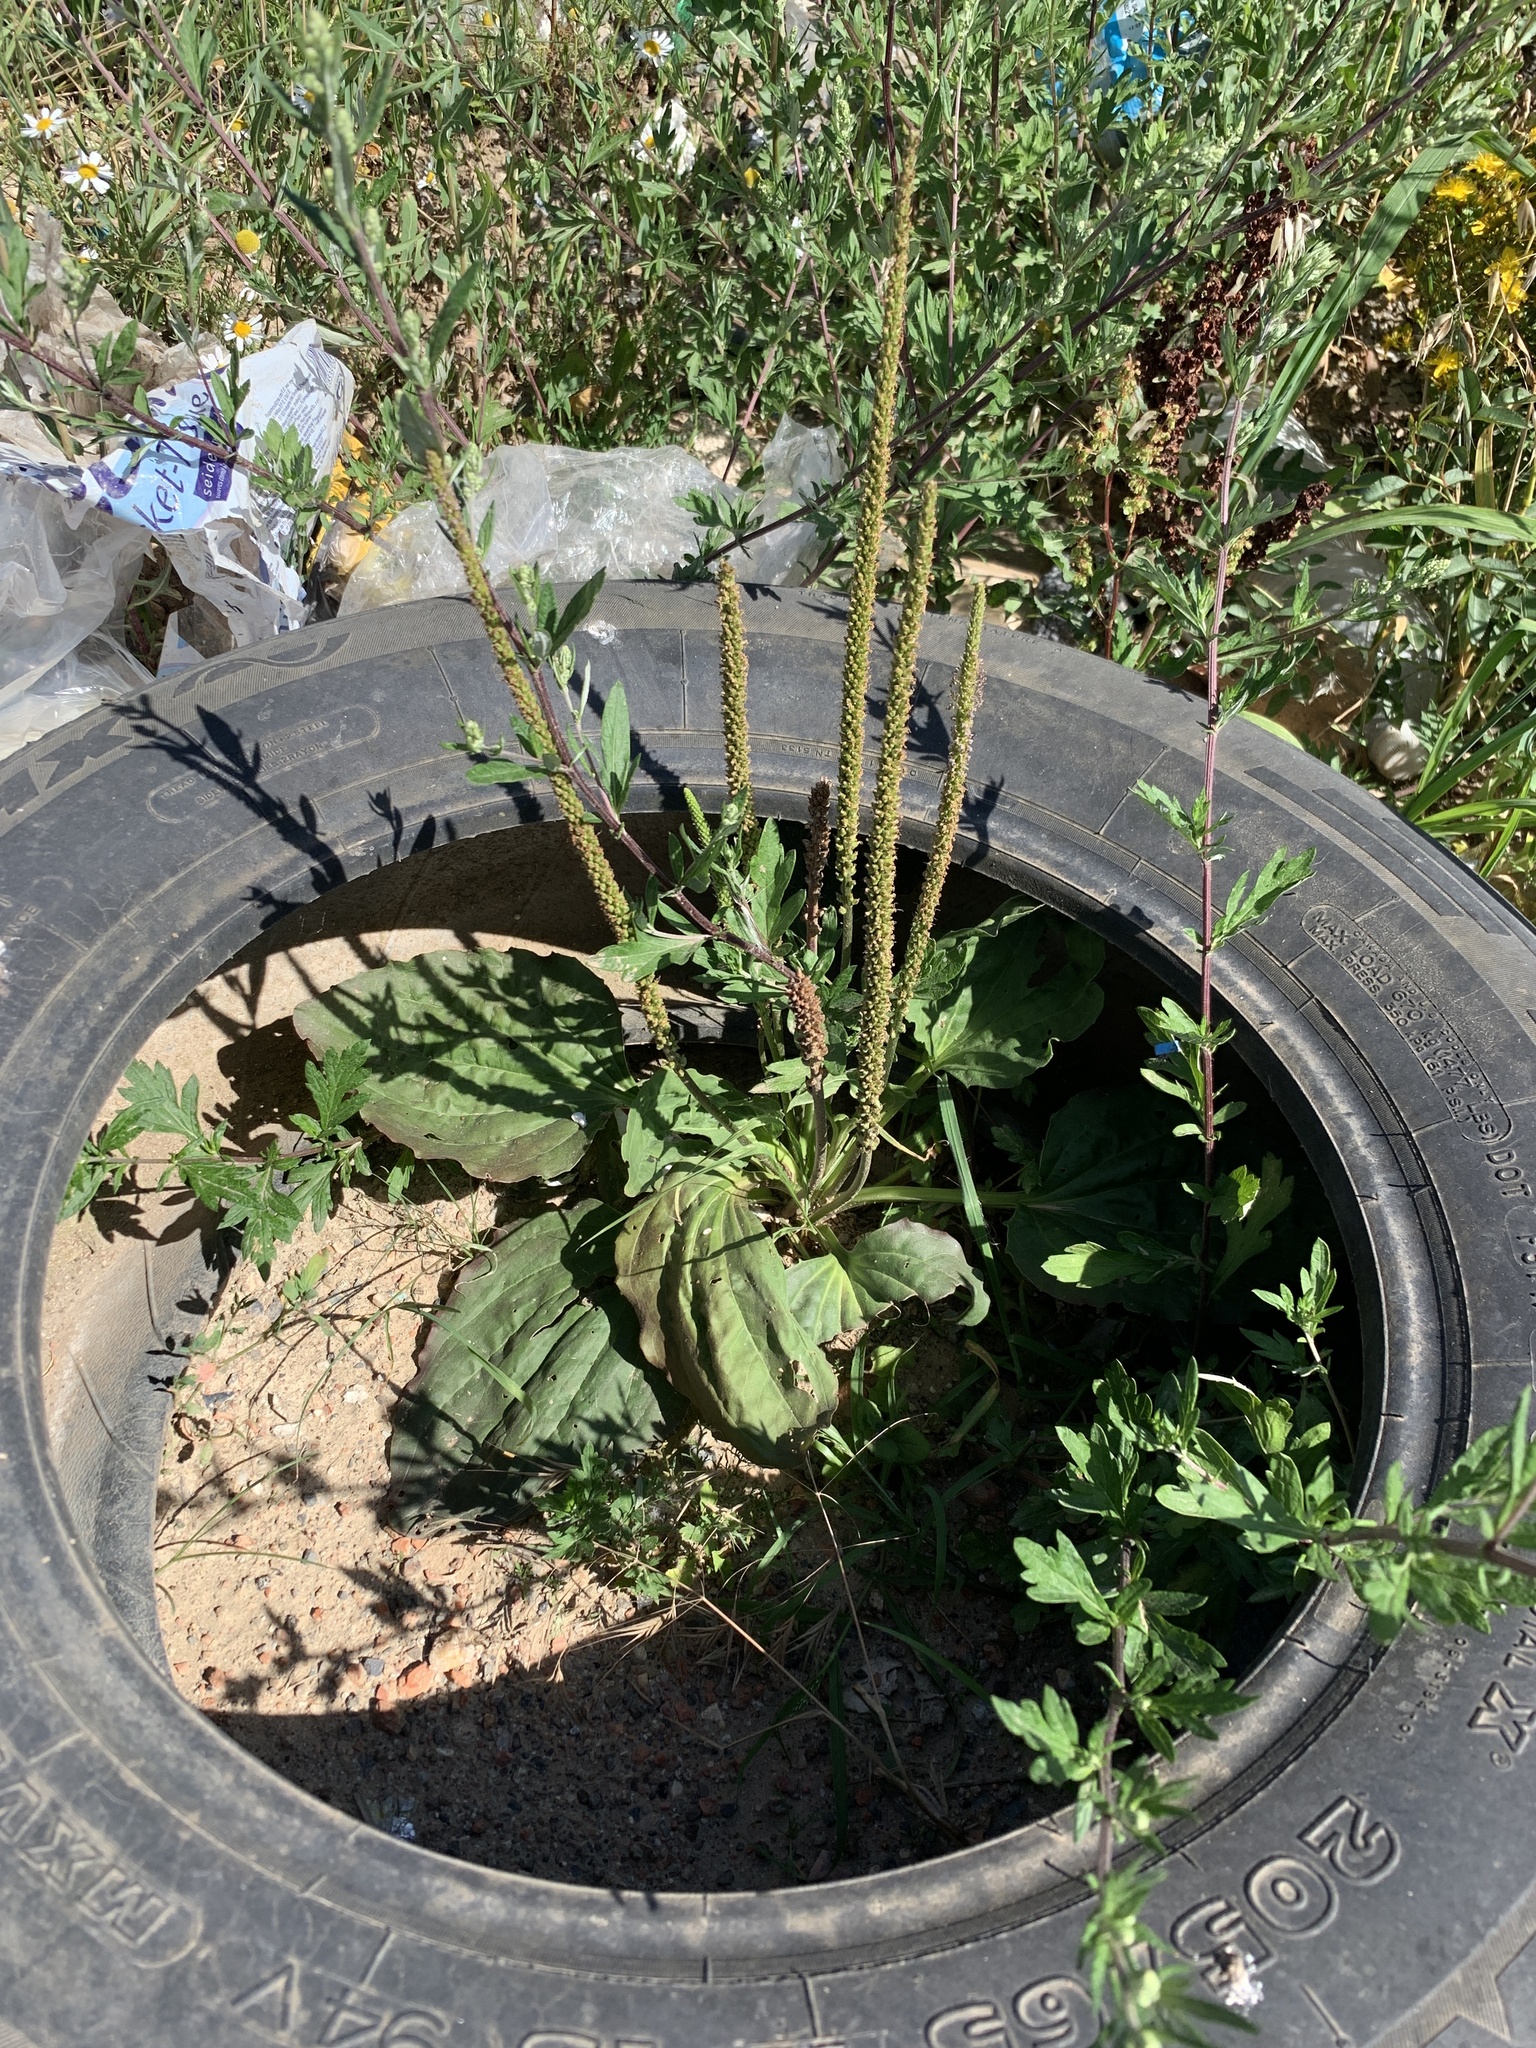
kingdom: Plantae
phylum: Tracheophyta
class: Magnoliopsida
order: Lamiales
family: Plantaginaceae
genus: Plantago
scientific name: Plantago major
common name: Common plantain
